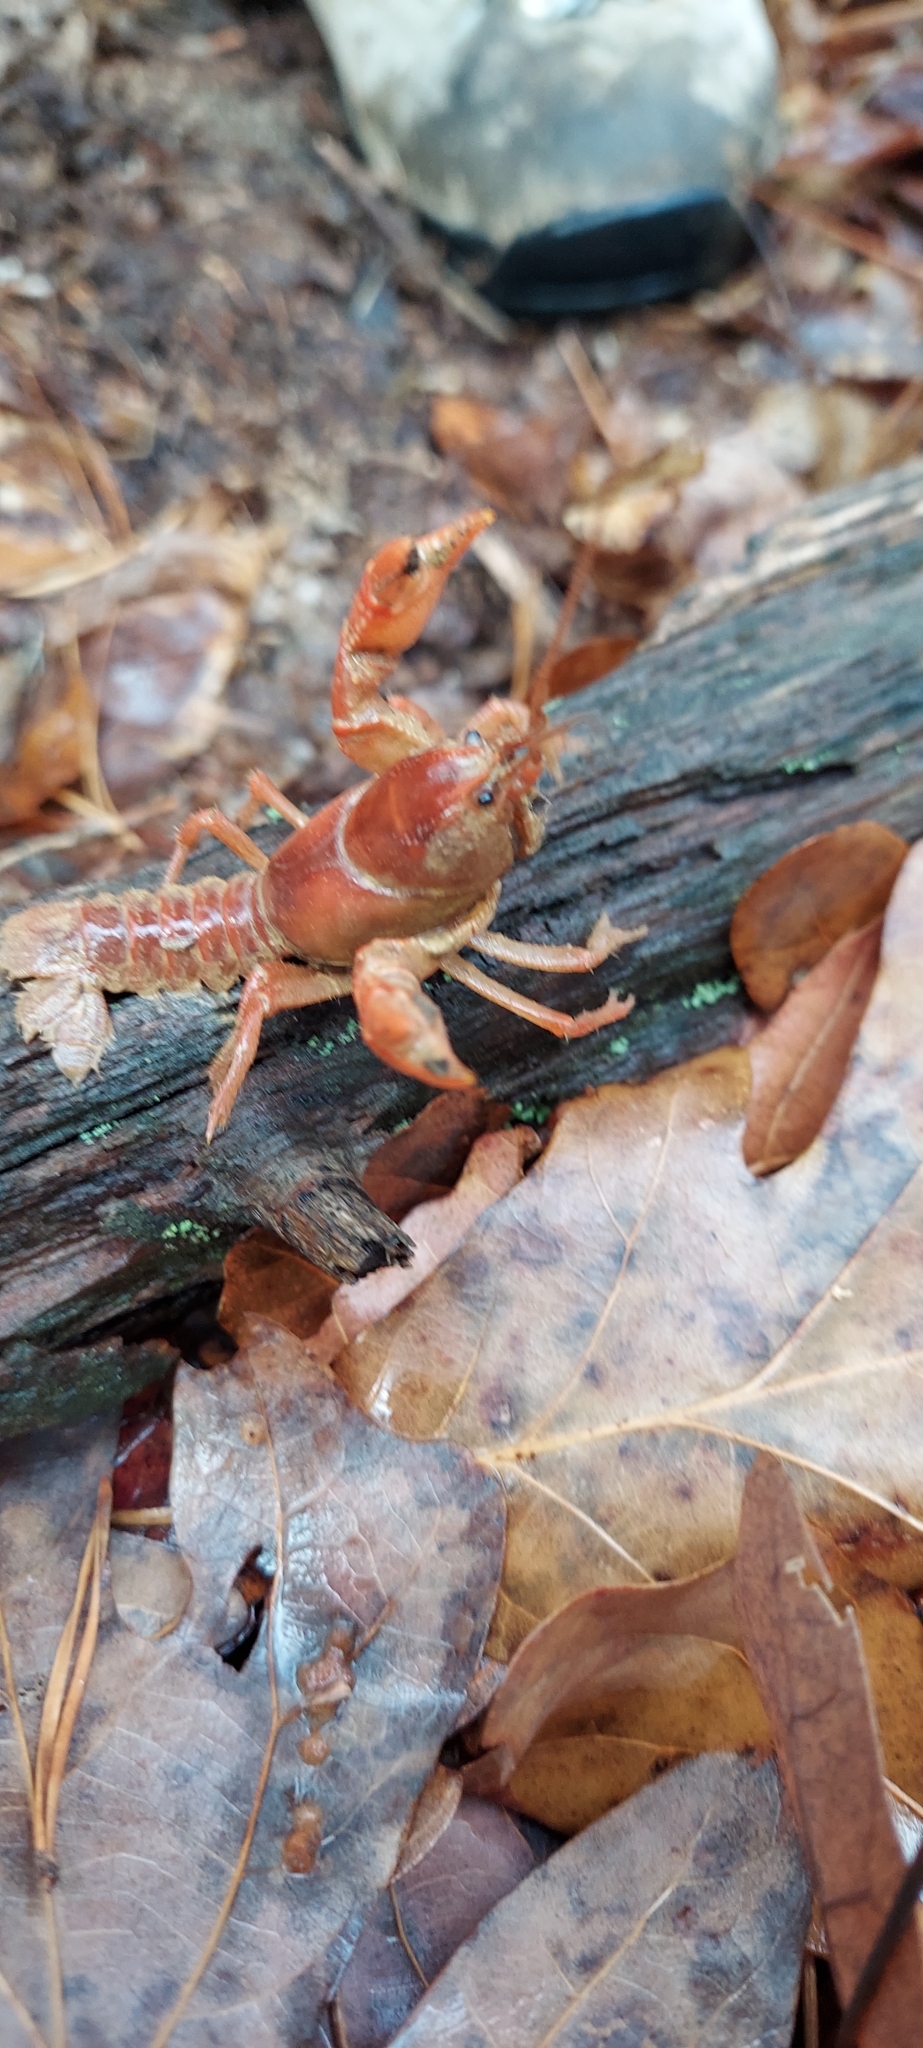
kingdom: Animalia
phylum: Arthropoda
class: Malacostraca
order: Decapoda
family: Cambaridae
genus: Cambarus
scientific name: Cambarus dubius
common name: Upland burrowing crayfish
